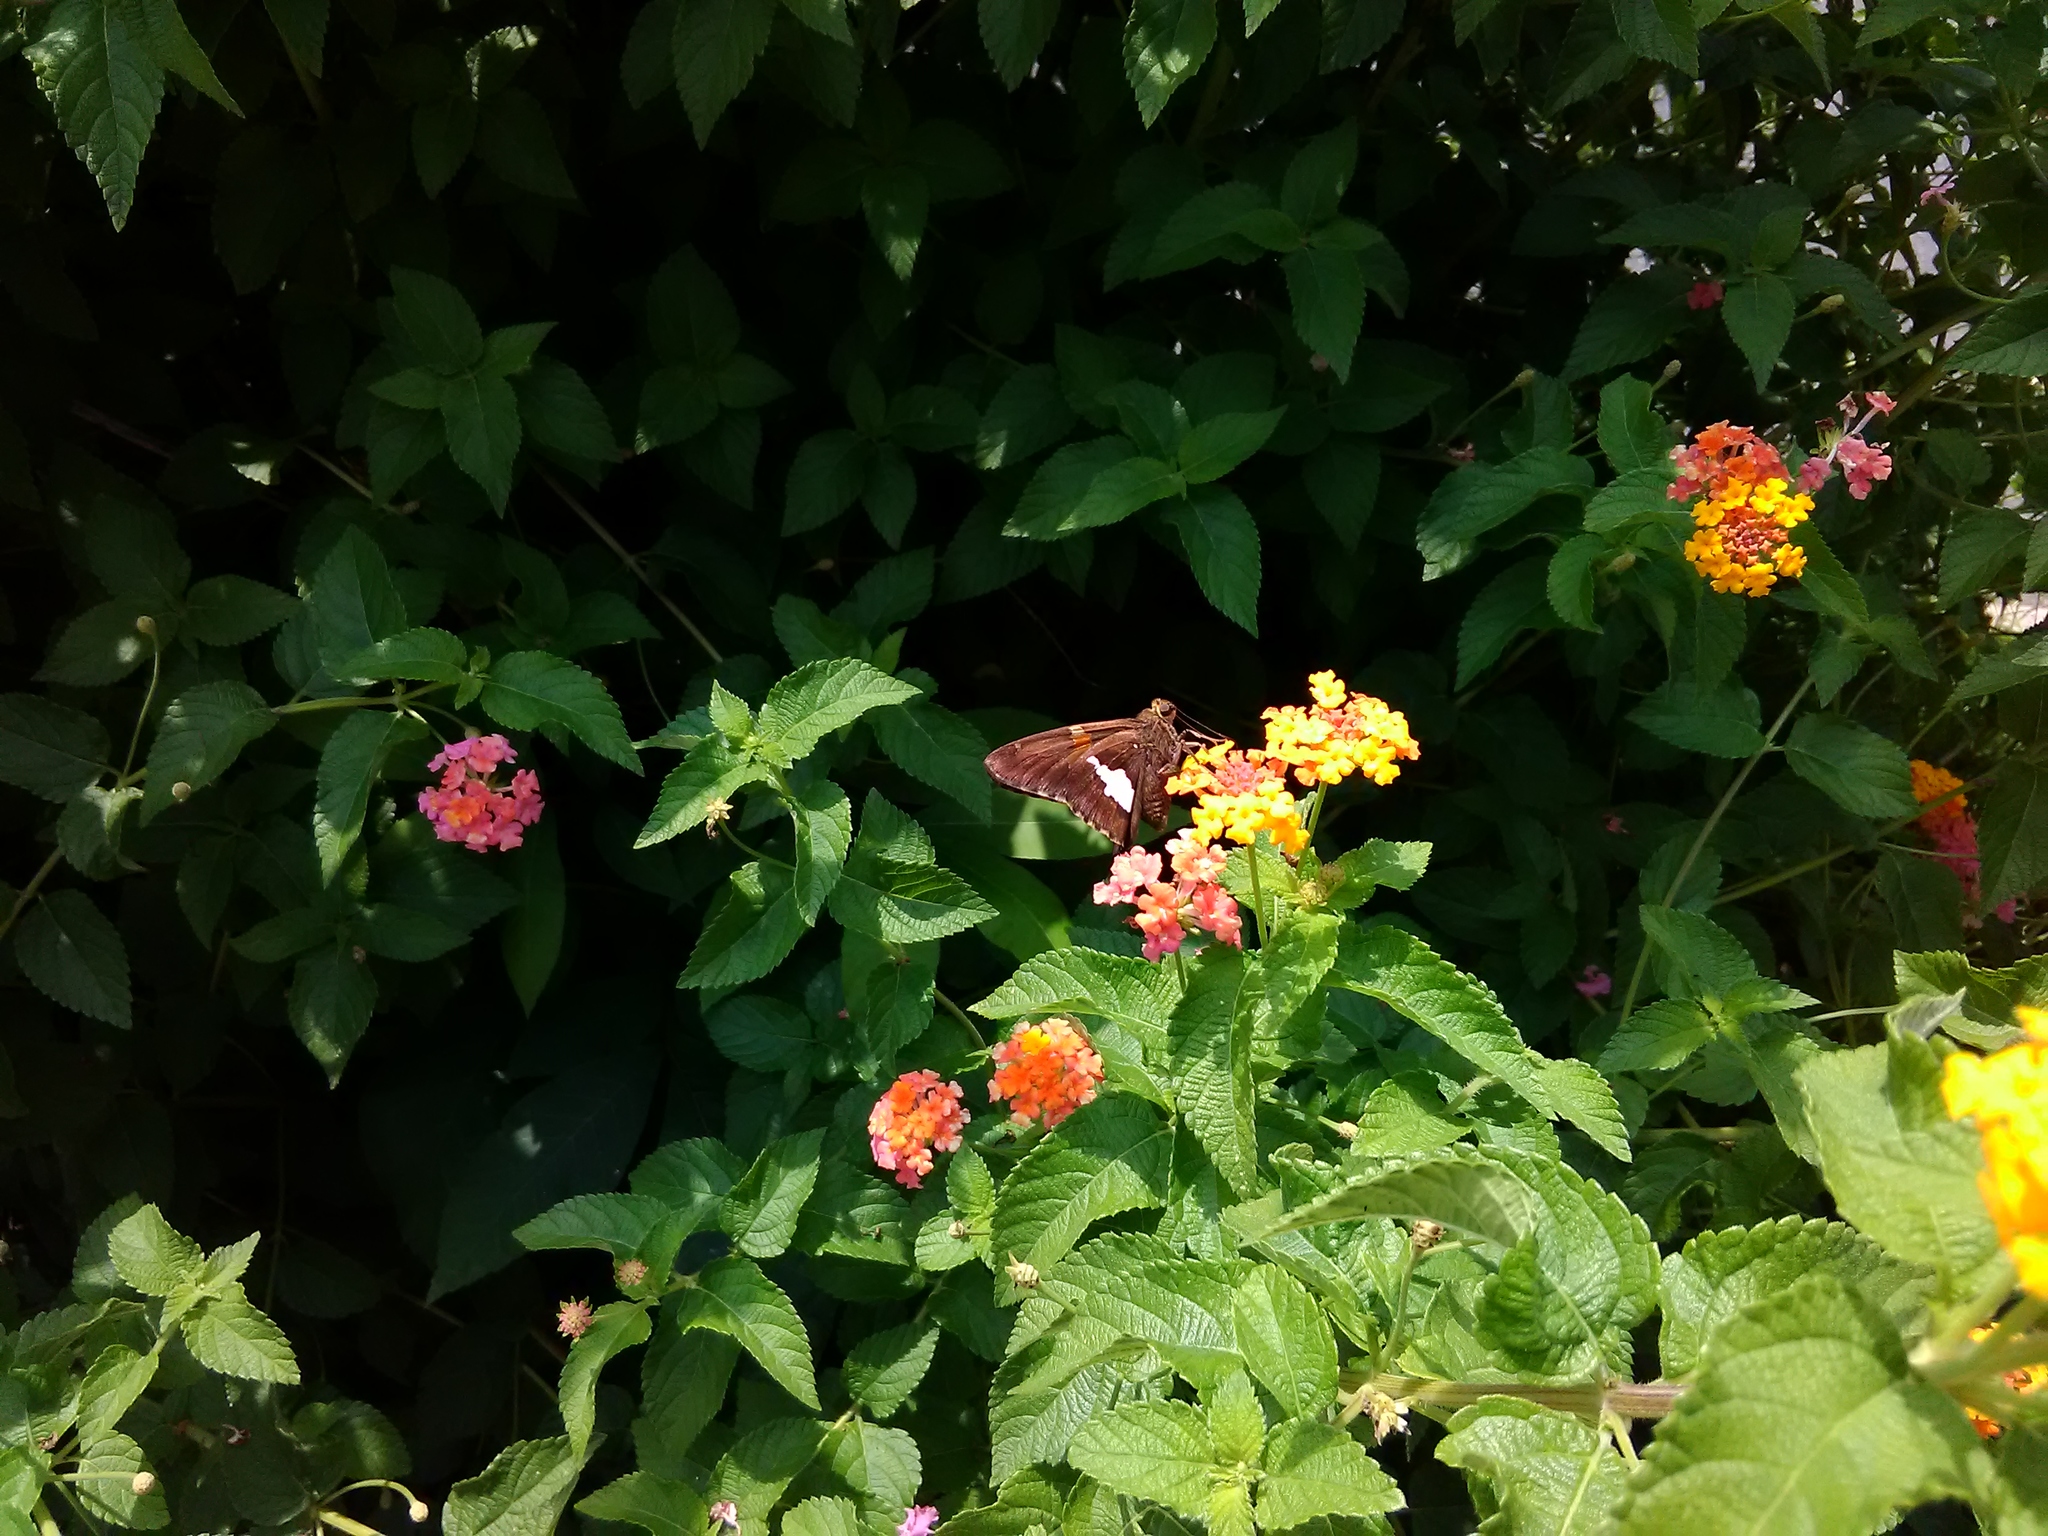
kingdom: Animalia
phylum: Arthropoda
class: Insecta
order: Lepidoptera
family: Hesperiidae
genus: Epargyreus
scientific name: Epargyreus clarus
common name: Silver-spotted skipper
